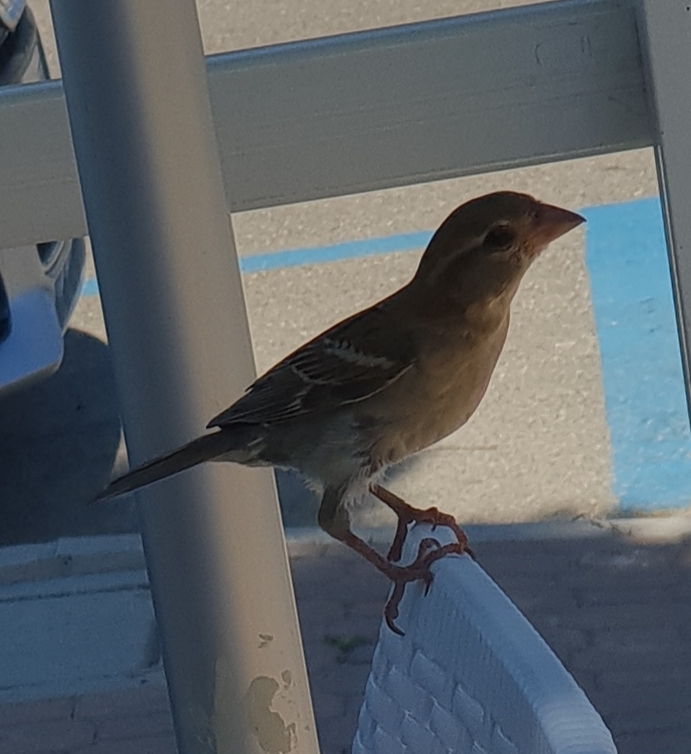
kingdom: Animalia
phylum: Chordata
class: Aves
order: Passeriformes
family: Passeridae
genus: Passer
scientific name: Passer italiae
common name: Italian sparrow
